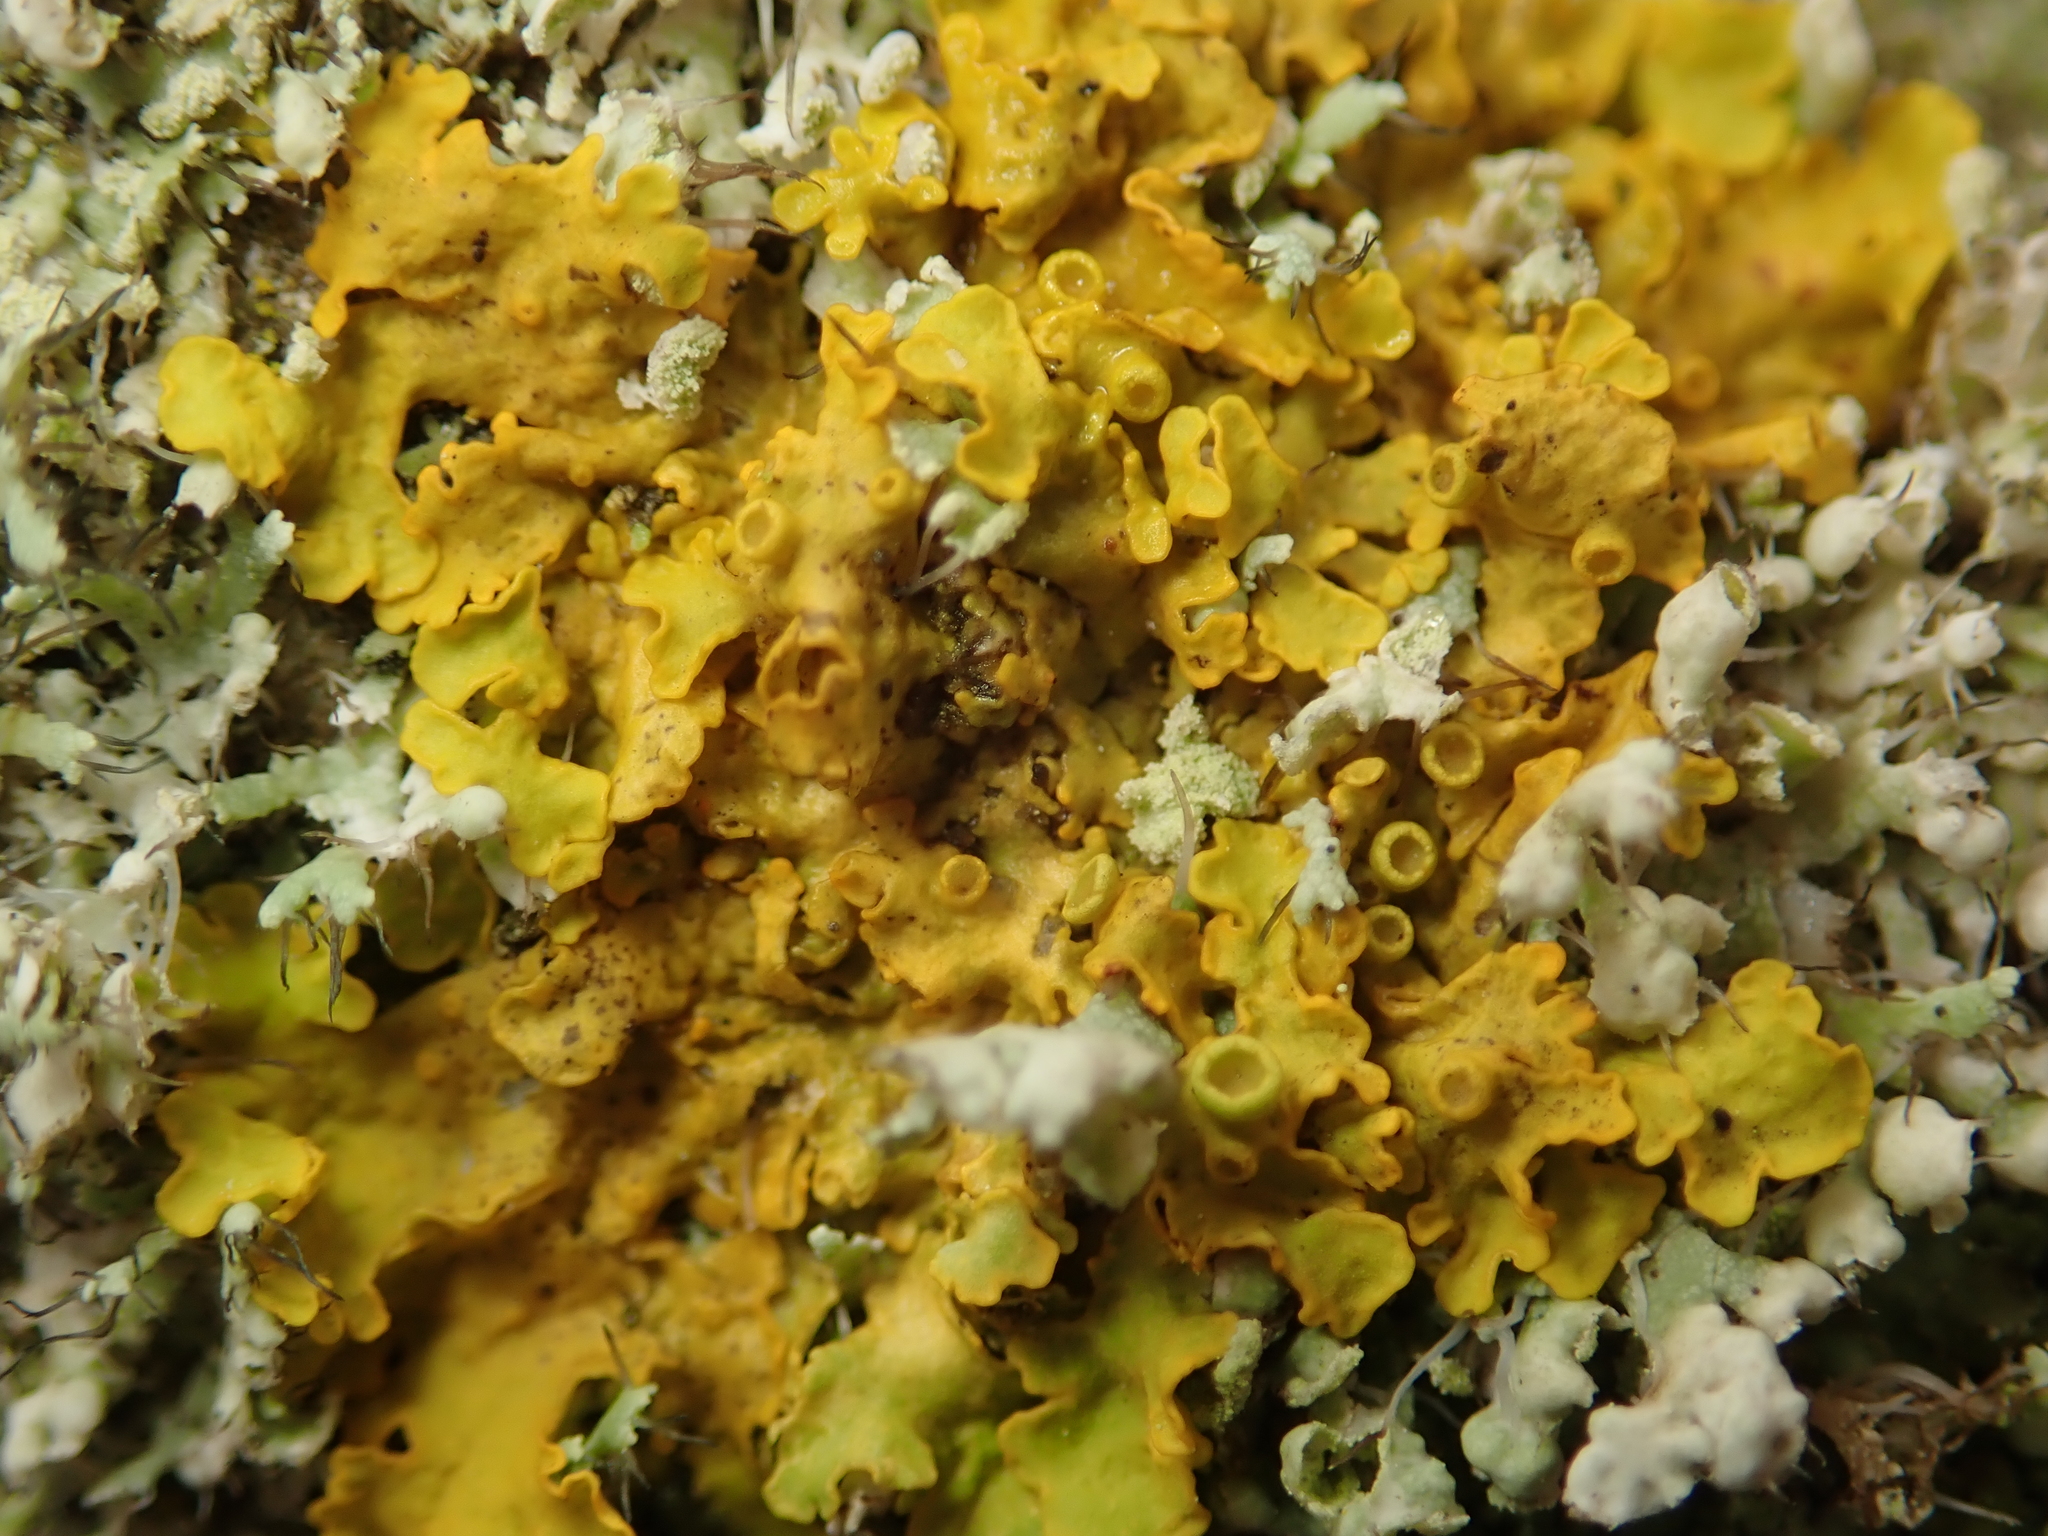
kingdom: Fungi
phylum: Ascomycota
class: Lecanoromycetes
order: Teloschistales
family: Teloschistaceae
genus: Xanthoria
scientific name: Xanthoria parietina
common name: Common orange lichen
